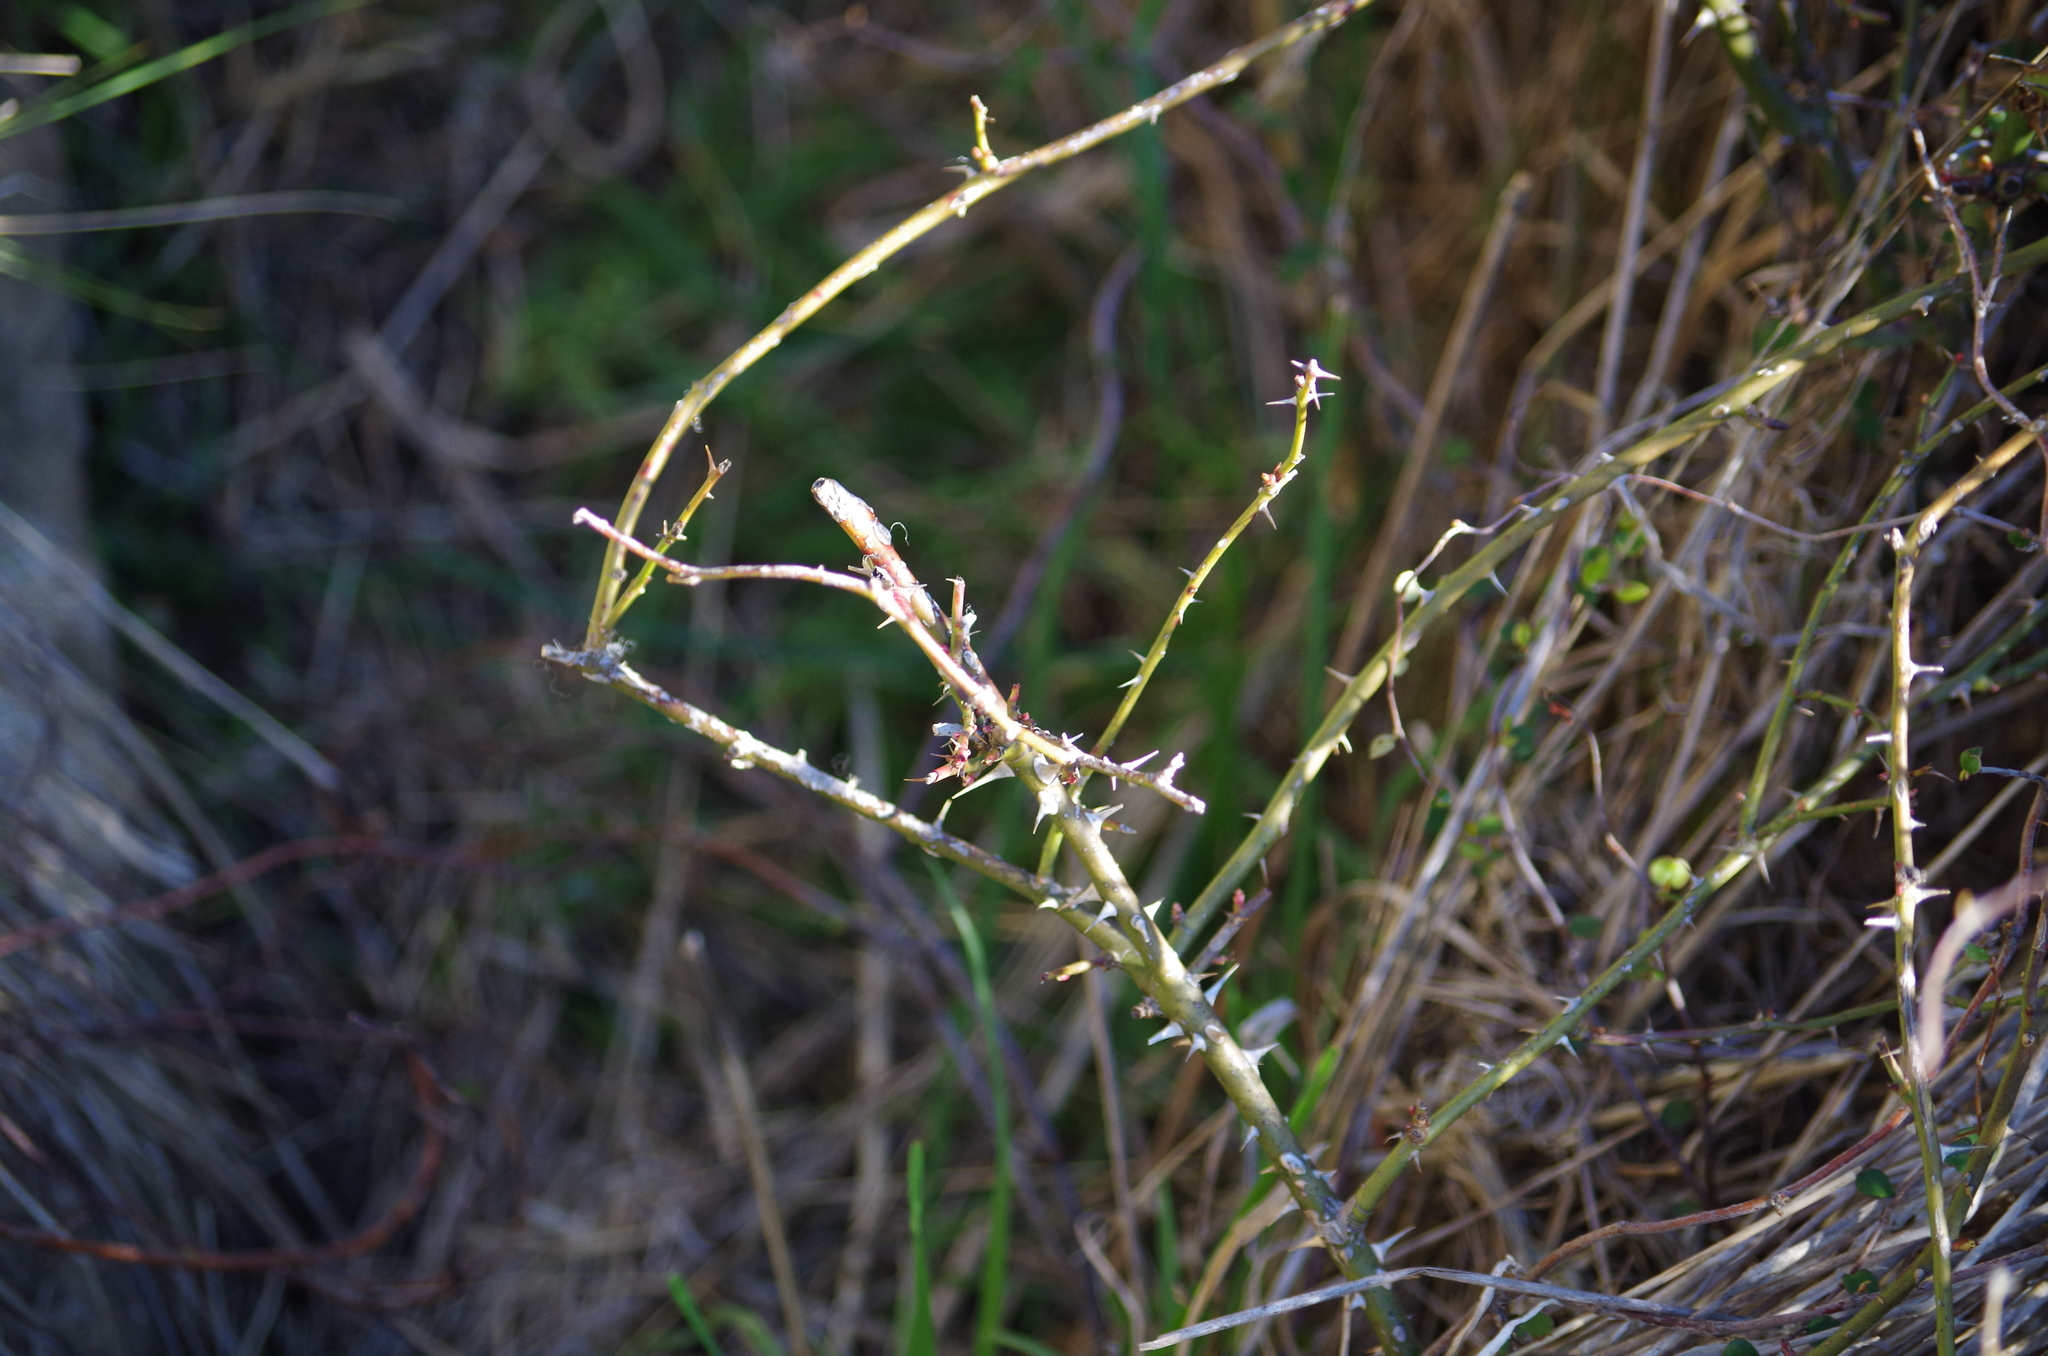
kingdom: Plantae
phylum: Tracheophyta
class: Magnoliopsida
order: Rosales
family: Rosaceae
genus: Rosa
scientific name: Rosa rubiginosa
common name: Sweet-briar
